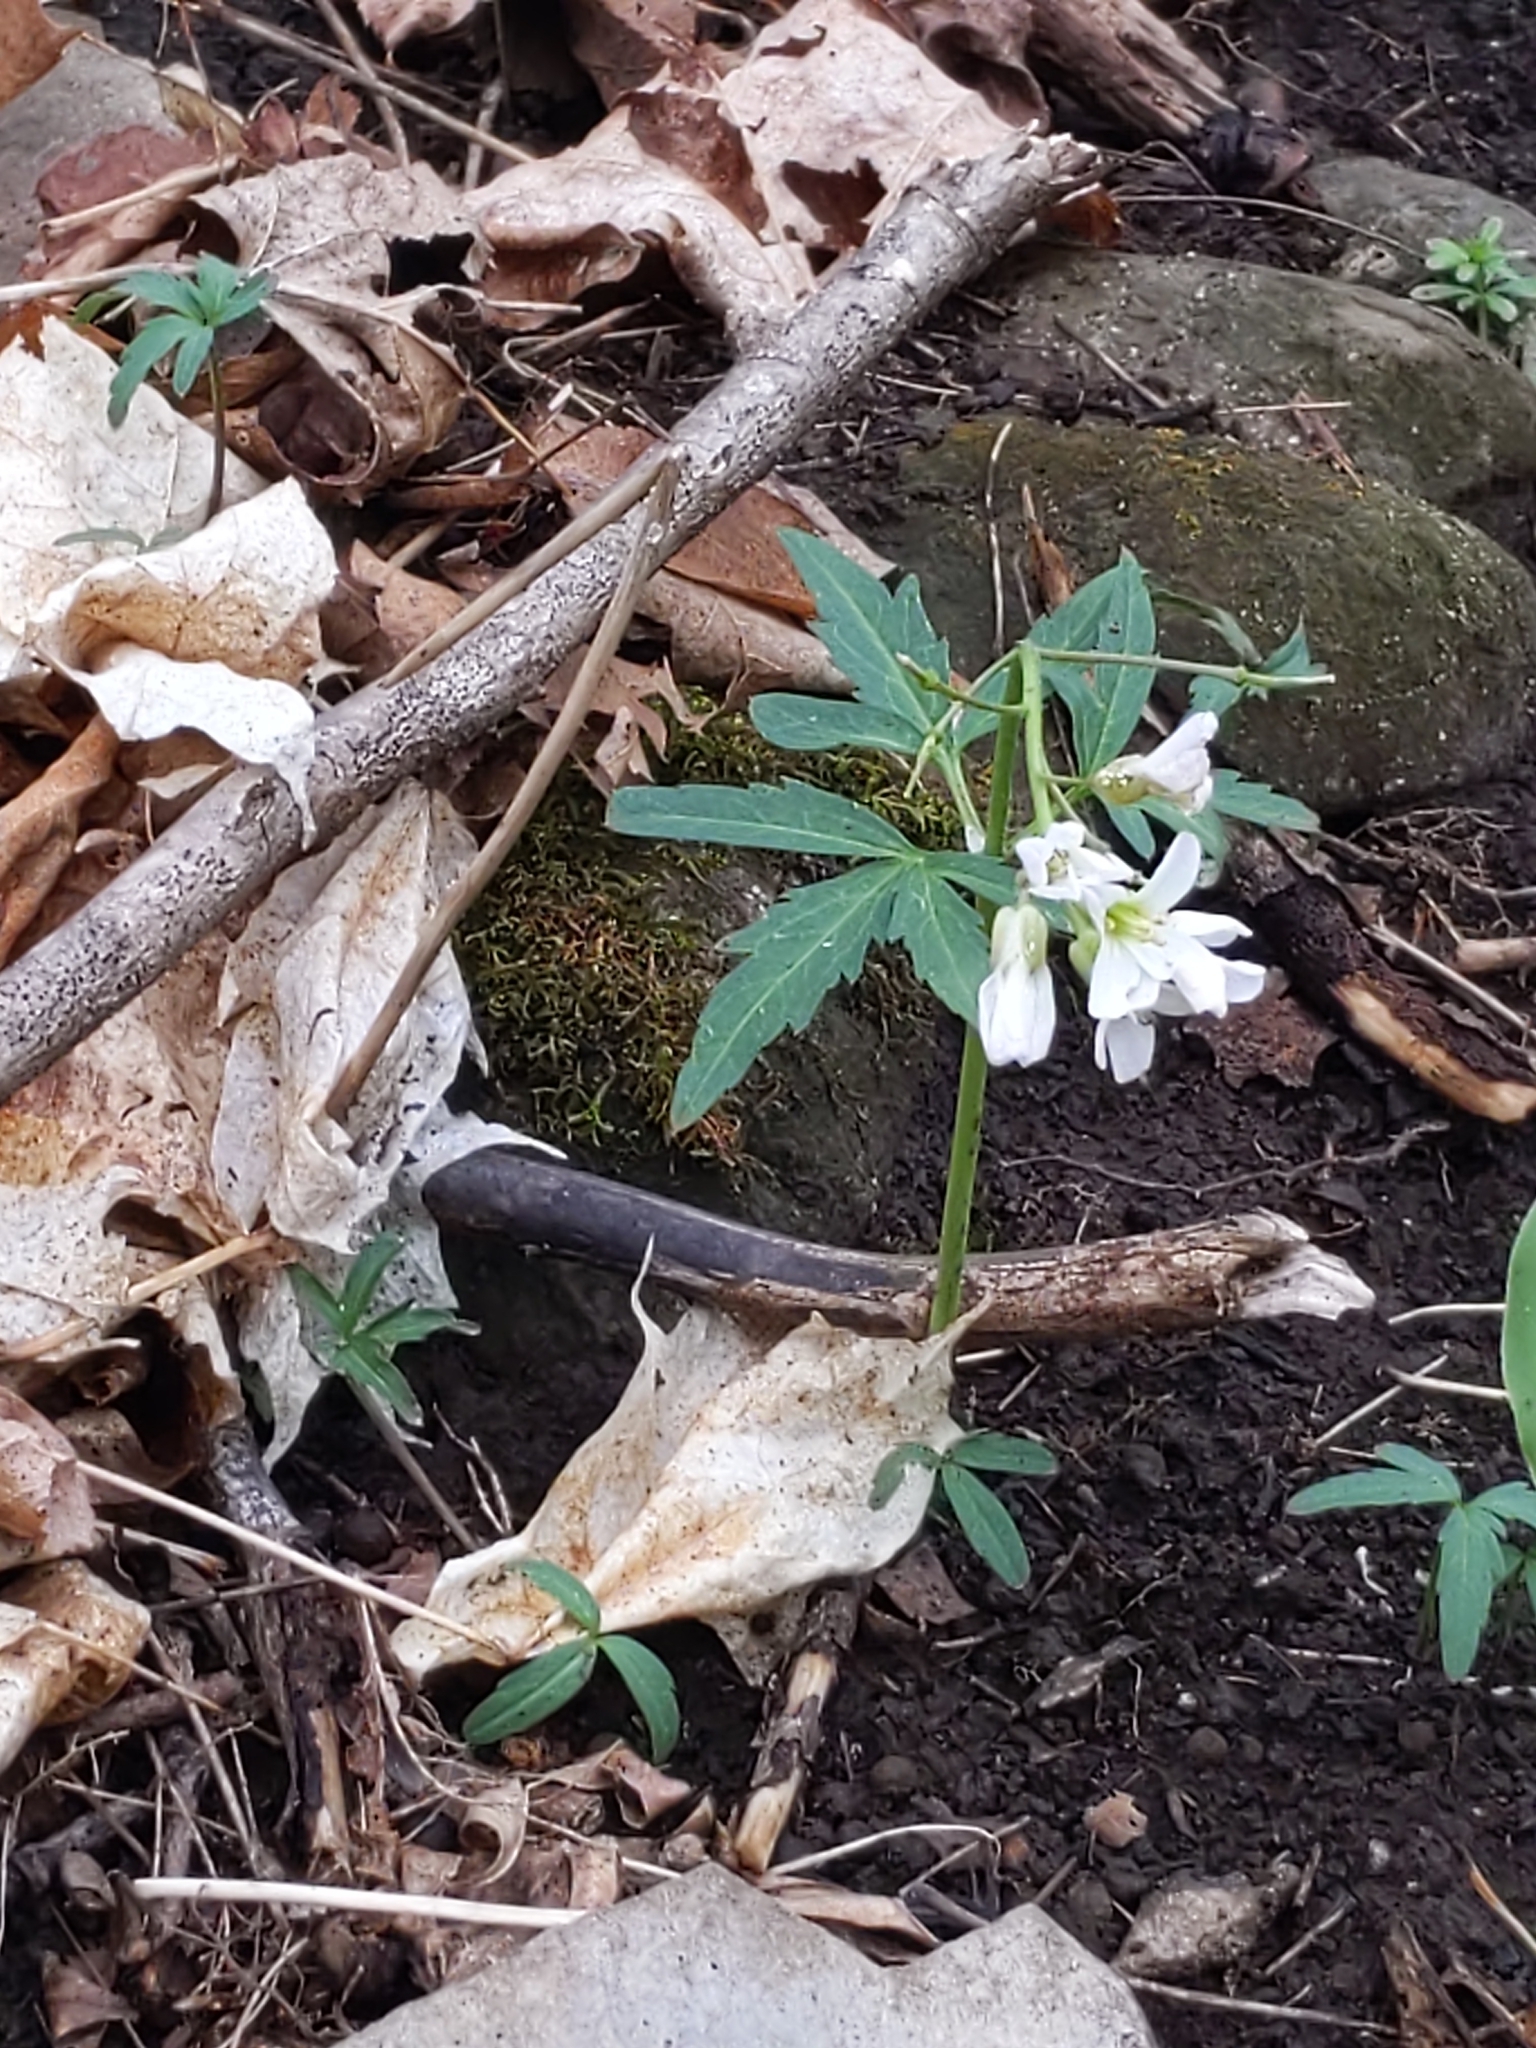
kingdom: Plantae
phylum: Tracheophyta
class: Magnoliopsida
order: Brassicales
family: Brassicaceae
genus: Cardamine
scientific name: Cardamine concatenata
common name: Cut-leaf toothcup
